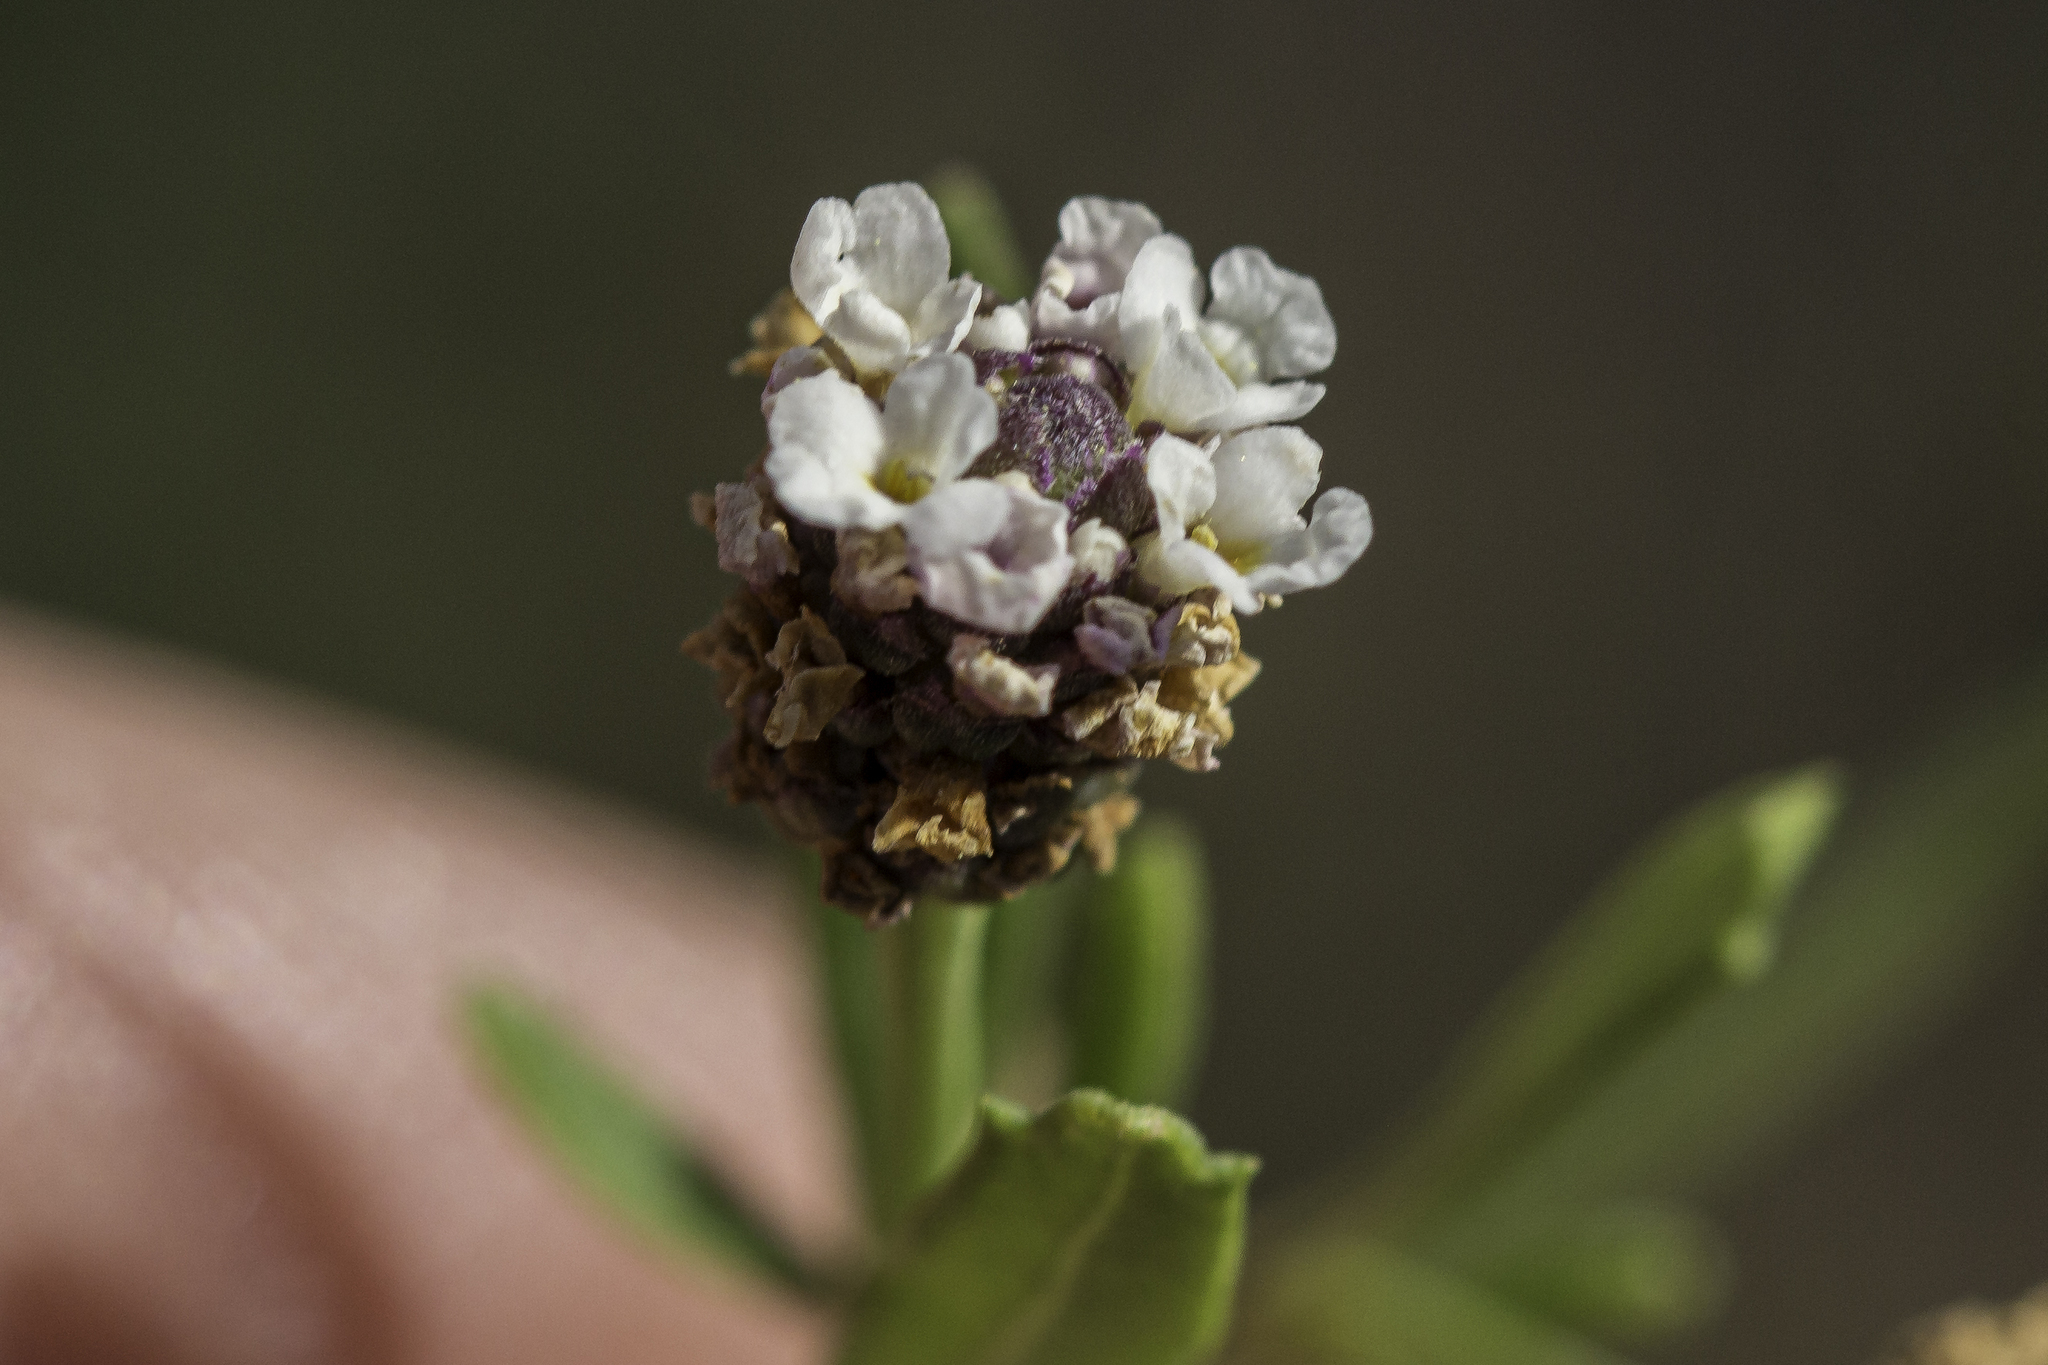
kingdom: Plantae
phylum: Tracheophyta
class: Magnoliopsida
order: Lamiales
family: Verbenaceae
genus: Phyla
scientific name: Phyla cuneifolia
